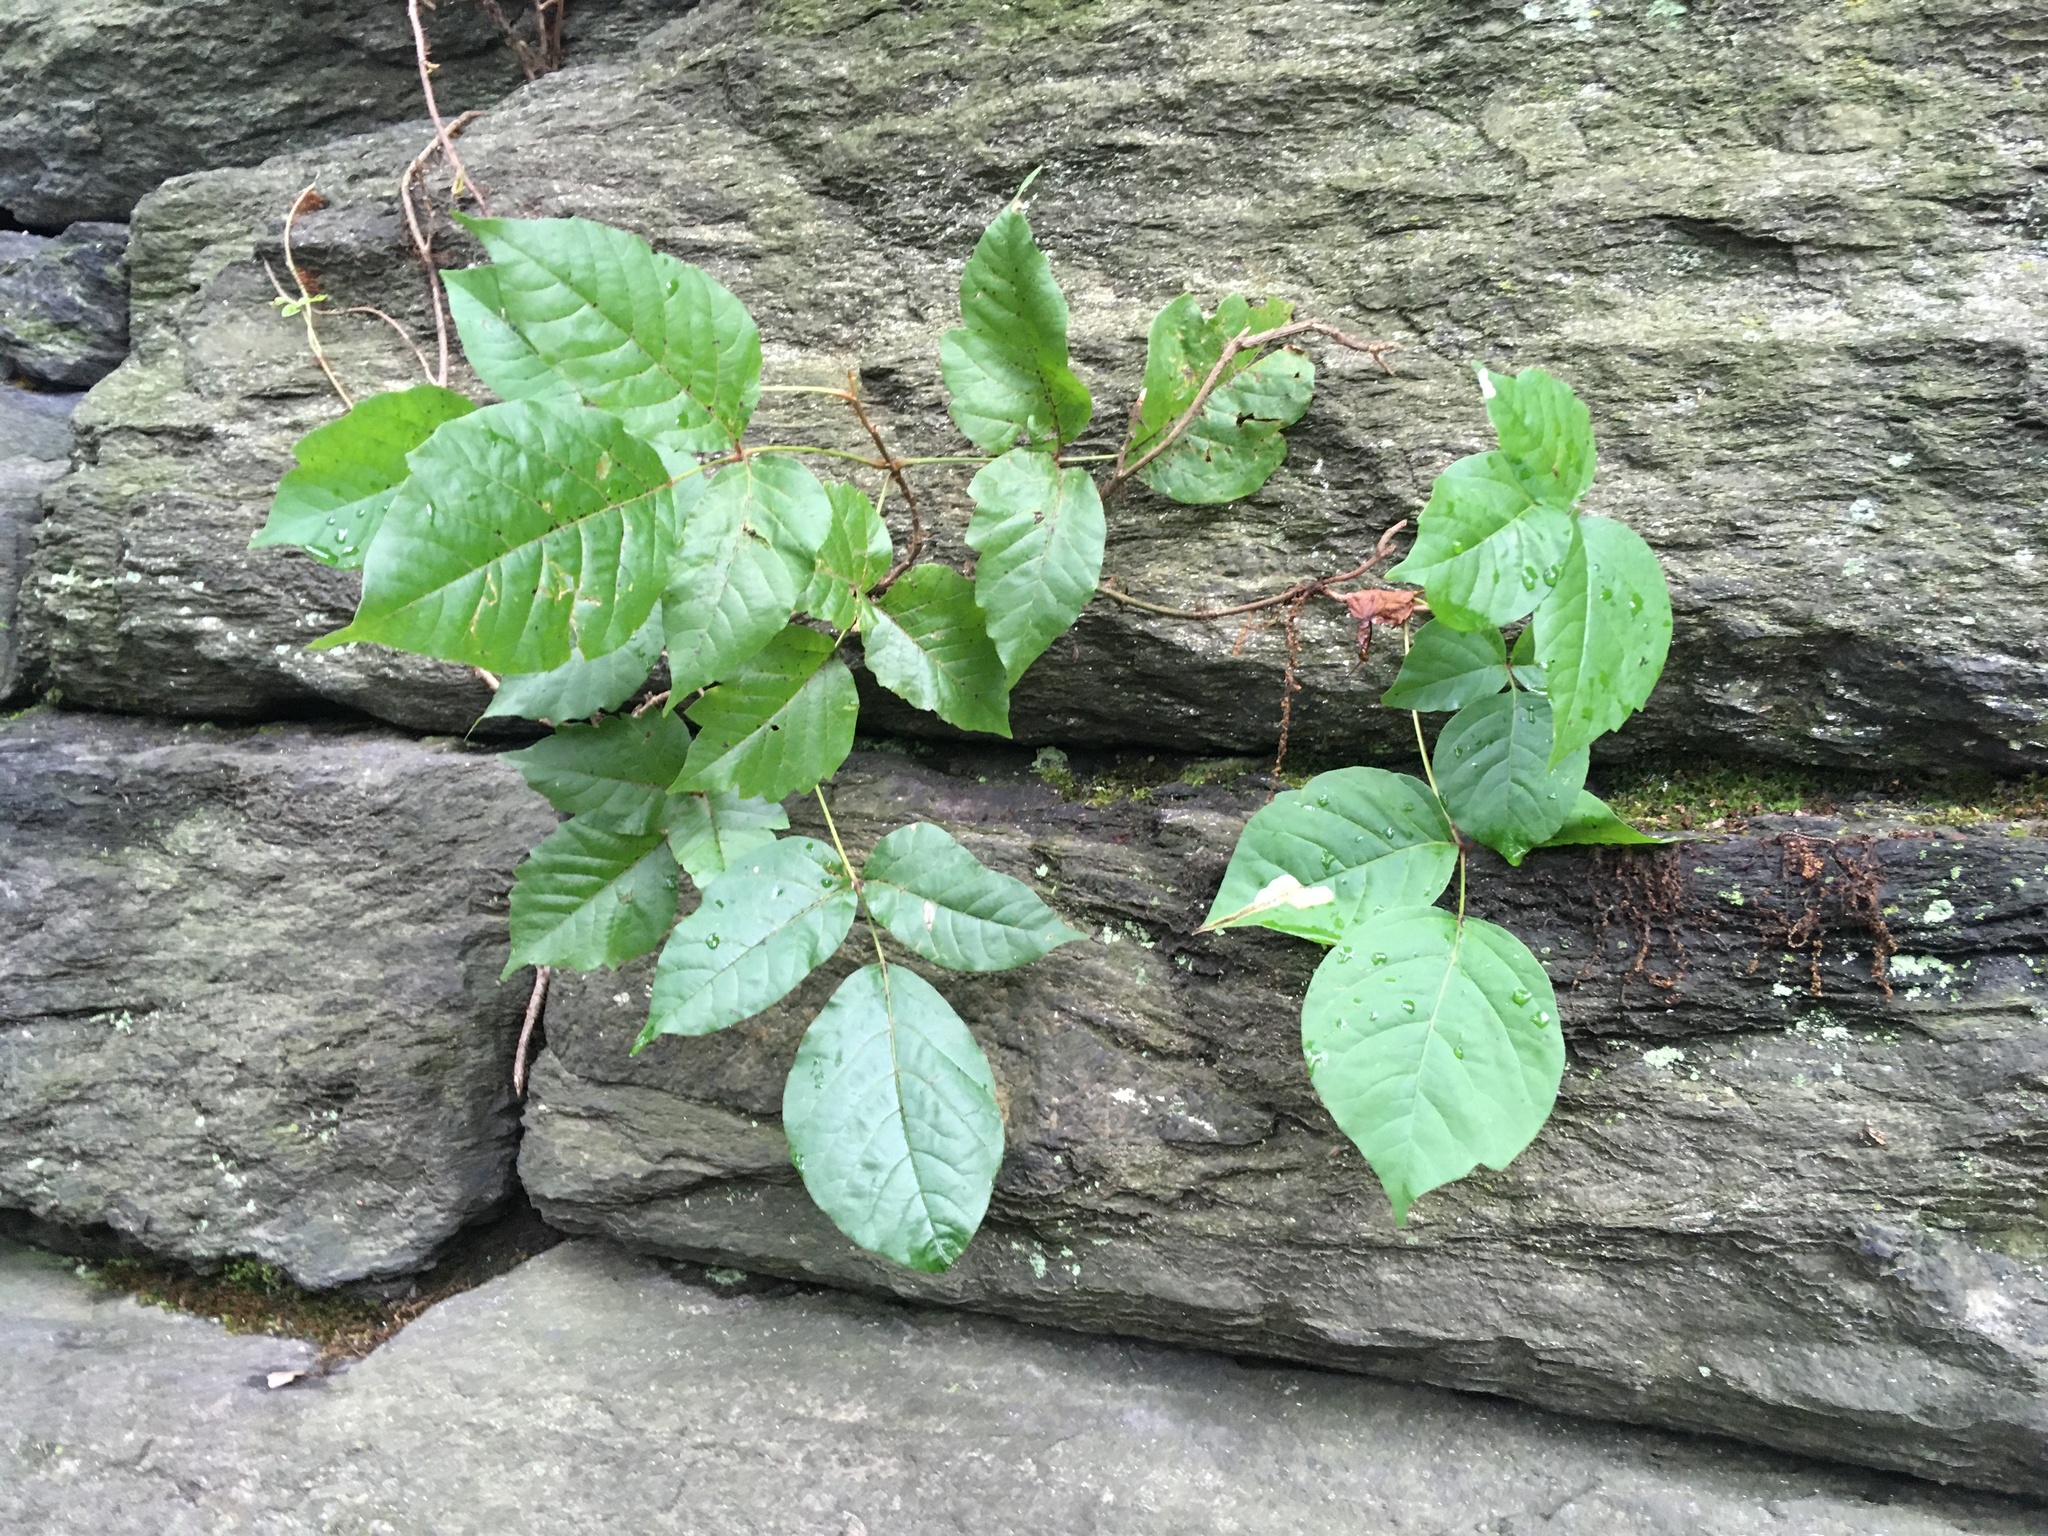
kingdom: Plantae
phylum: Tracheophyta
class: Magnoliopsida
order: Sapindales
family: Anacardiaceae
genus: Toxicodendron
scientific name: Toxicodendron radicans
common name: Poison ivy
